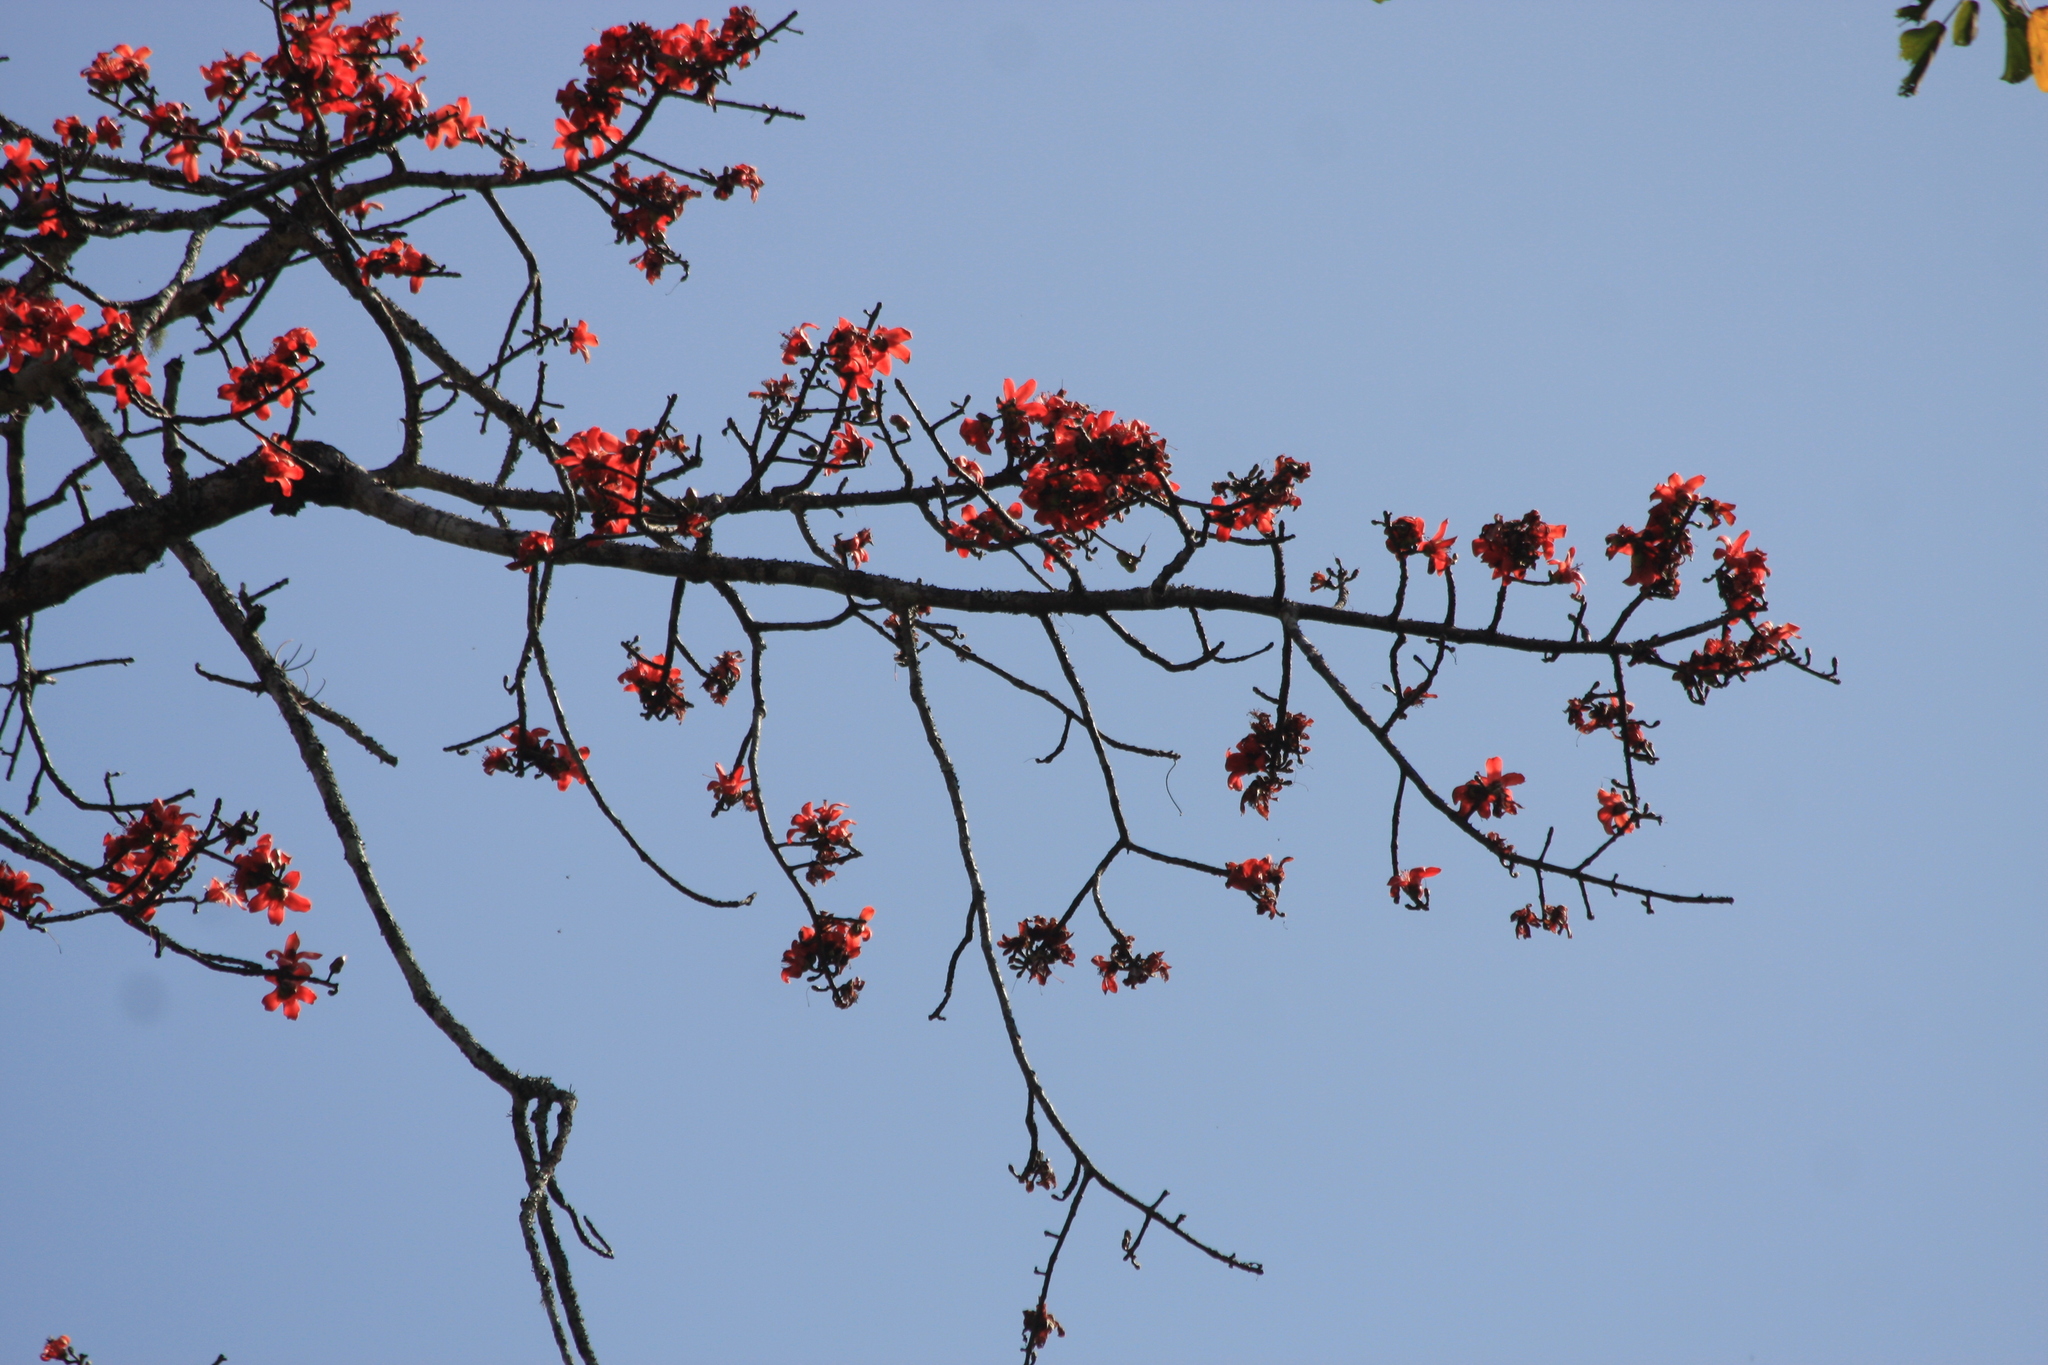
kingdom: Plantae
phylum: Tracheophyta
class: Magnoliopsida
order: Malvales
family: Malvaceae
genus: Bombax
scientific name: Bombax ceiba
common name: Northern-cottonwood
